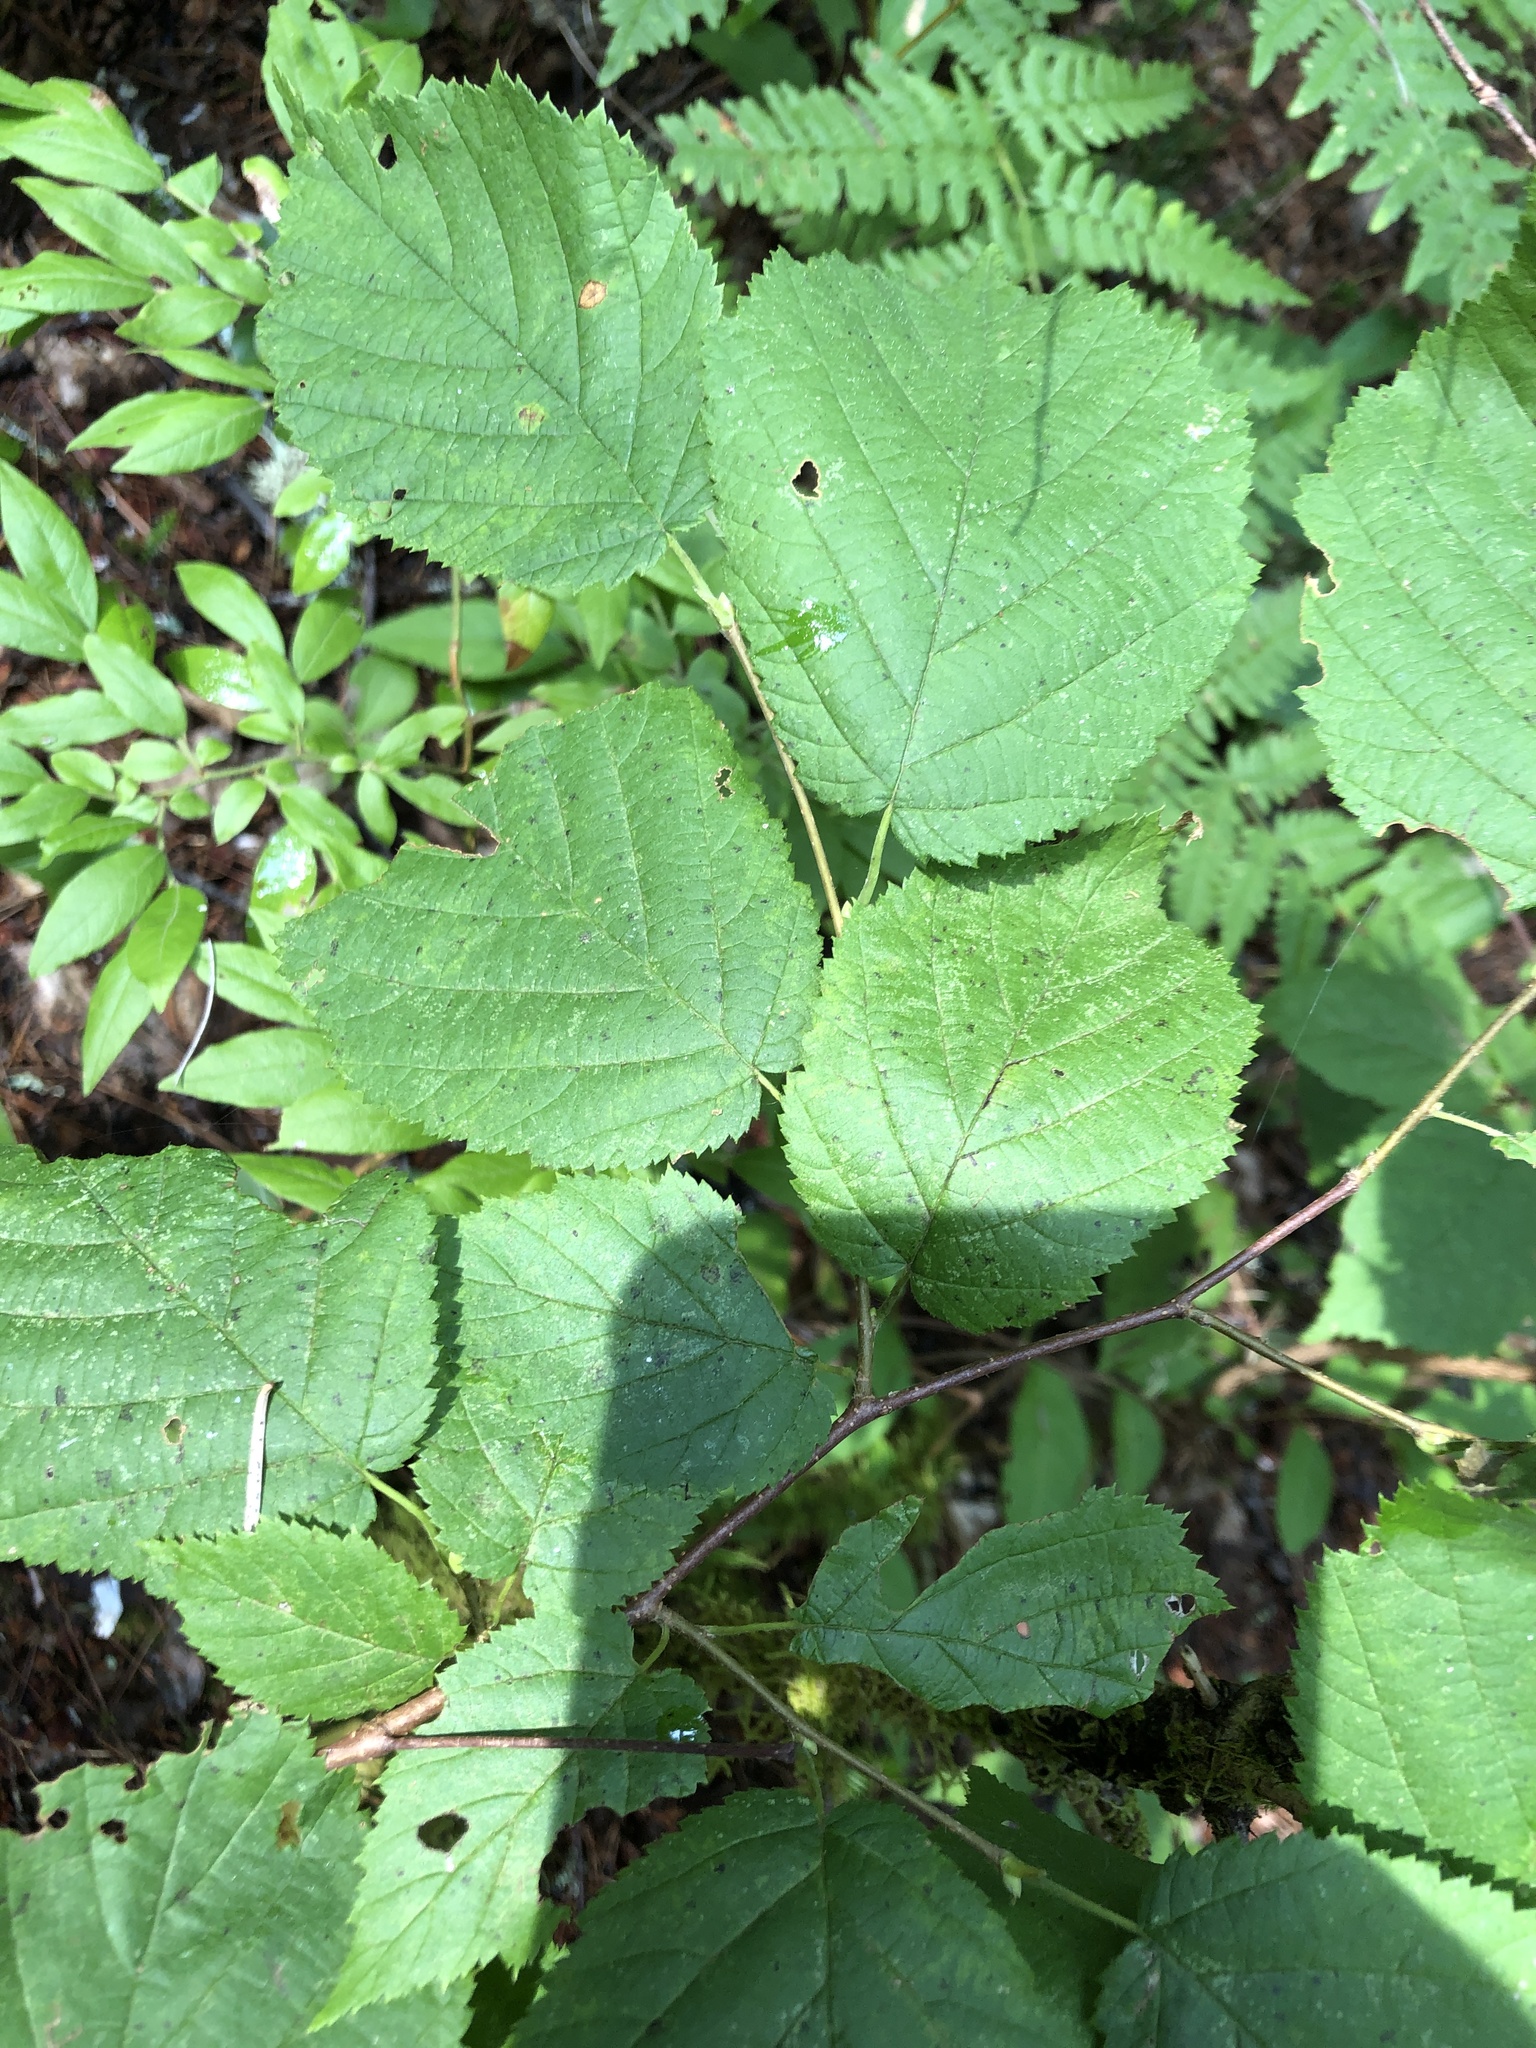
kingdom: Plantae
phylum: Tracheophyta
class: Magnoliopsida
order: Fagales
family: Betulaceae
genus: Corylus
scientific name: Corylus cornuta
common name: Beaked hazel
